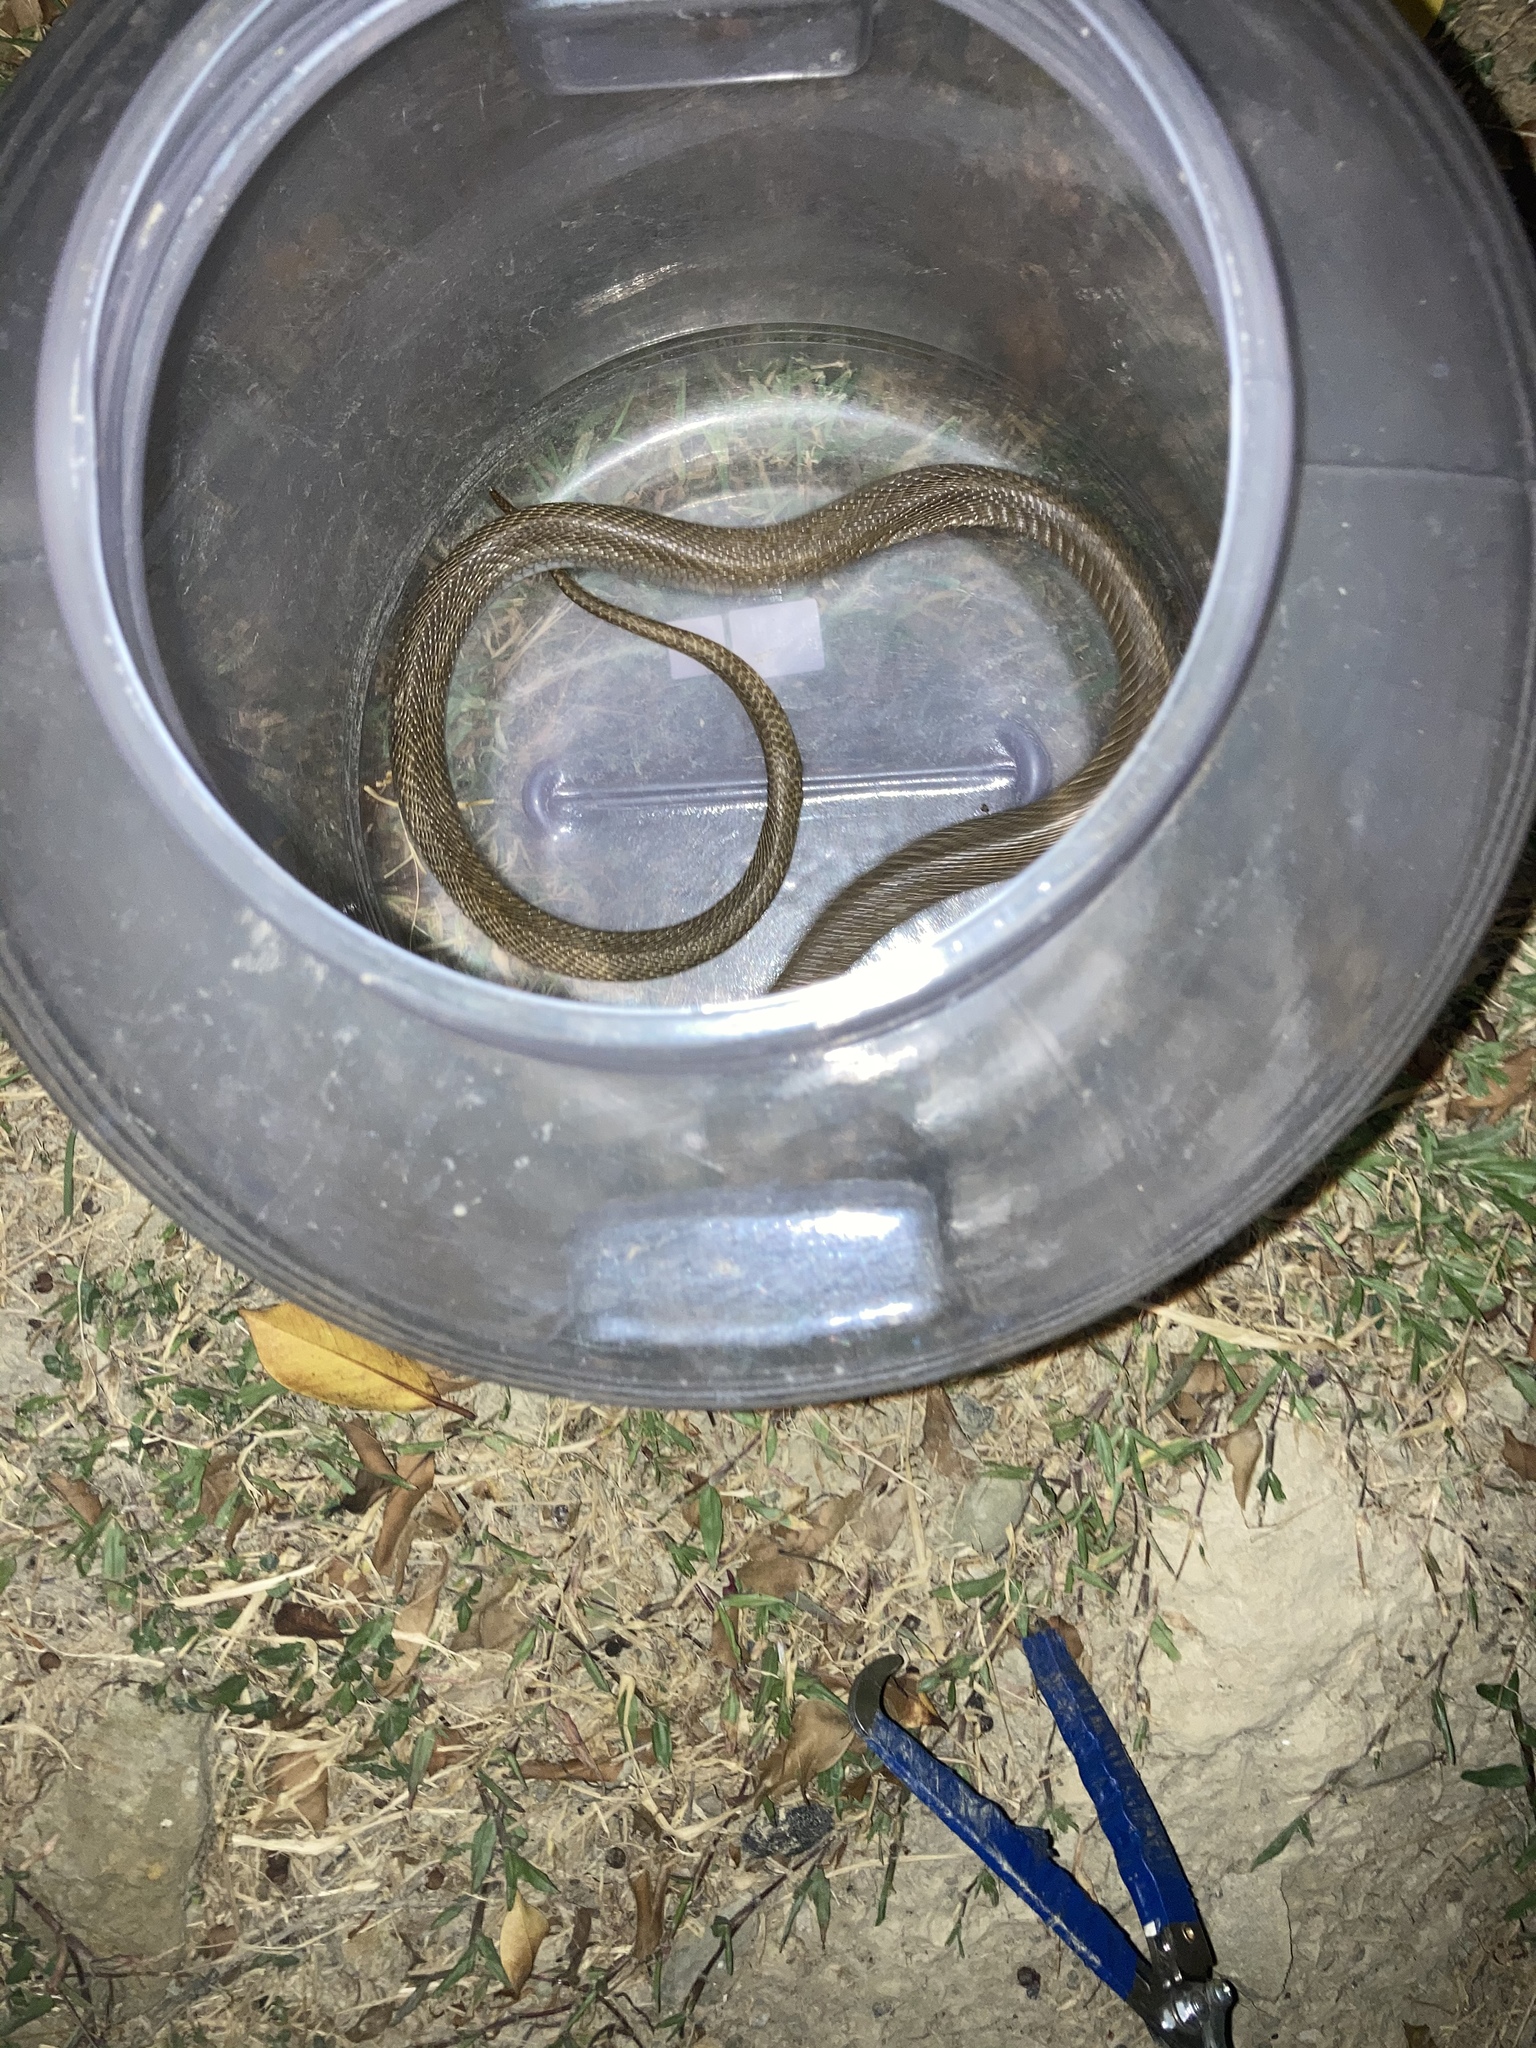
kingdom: Animalia
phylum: Chordata
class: Squamata
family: Elapidae
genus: Naja
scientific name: Naja atra
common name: Chinese cobra
